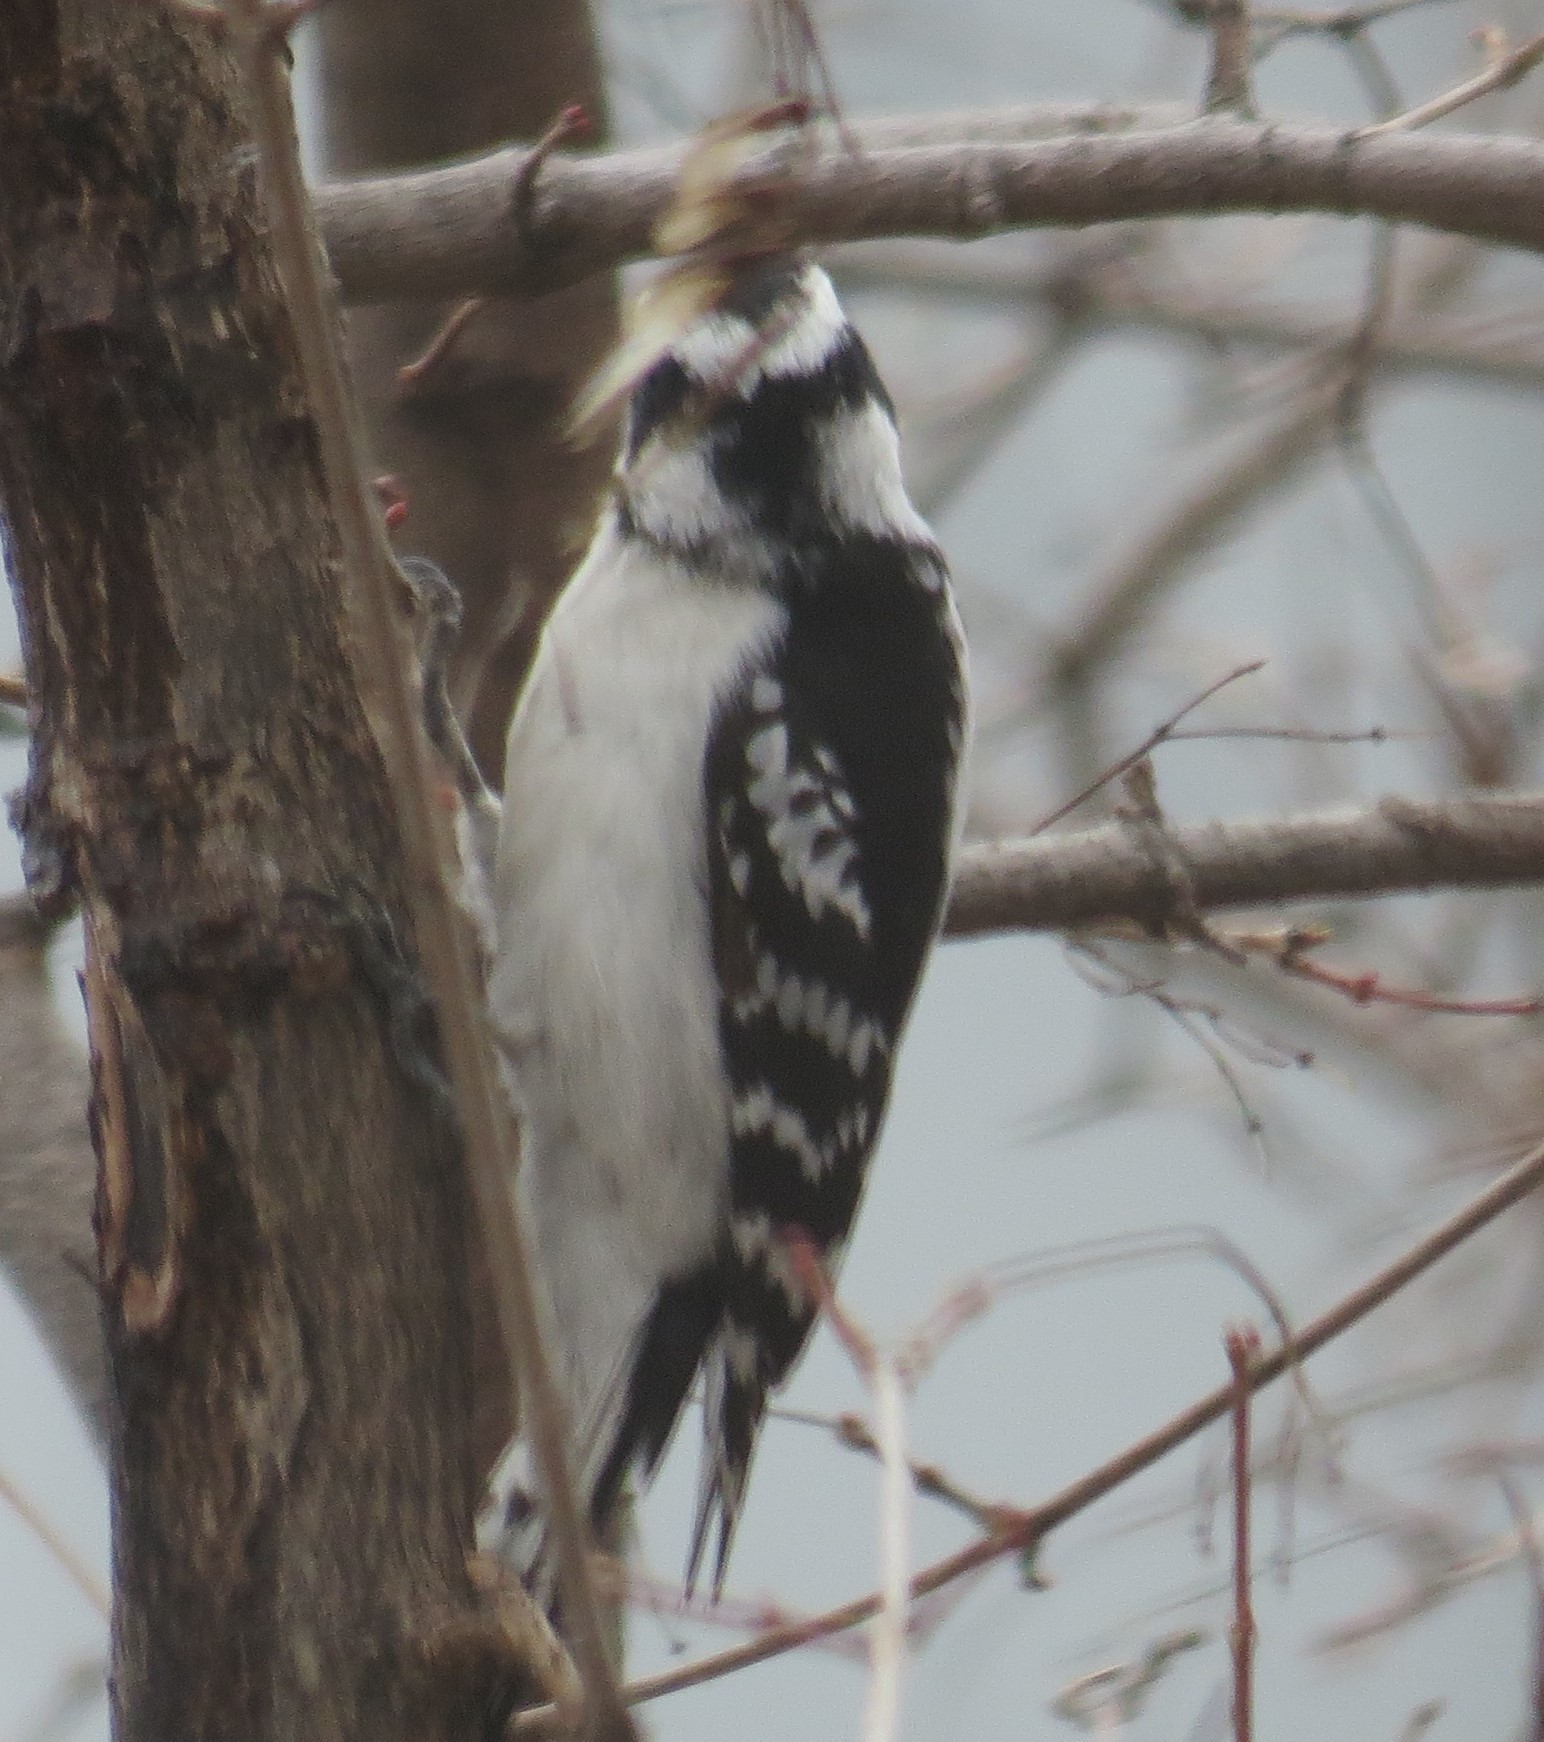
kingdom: Animalia
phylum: Chordata
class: Aves
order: Piciformes
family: Picidae
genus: Dryobates
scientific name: Dryobates pubescens
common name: Downy woodpecker
